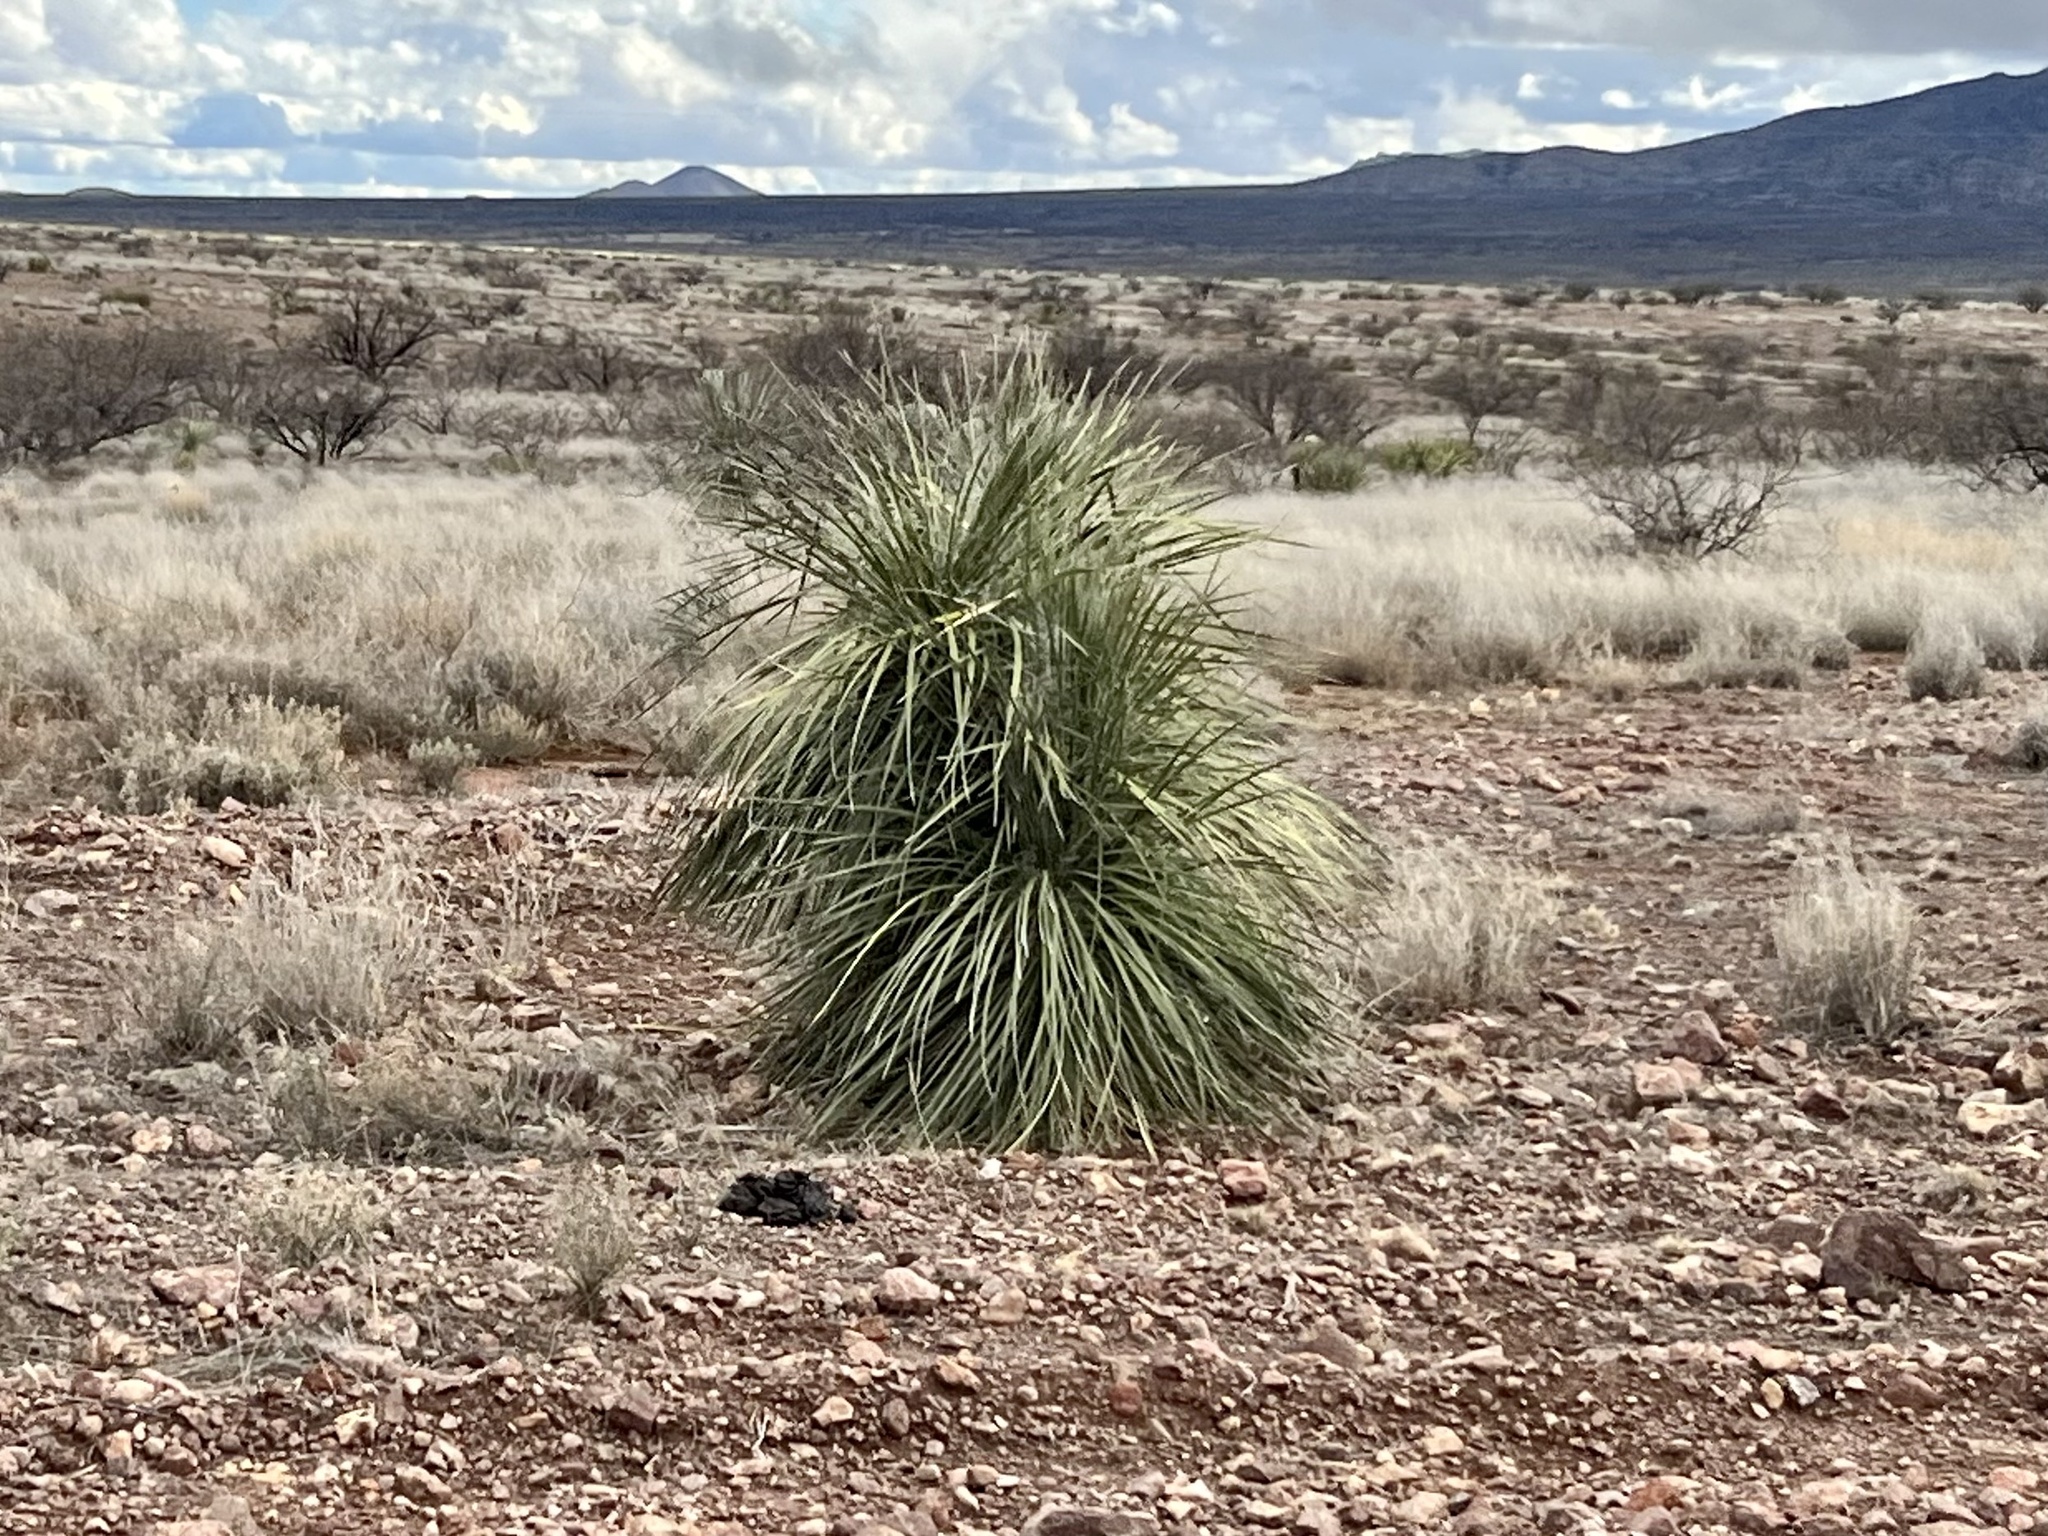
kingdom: Plantae
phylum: Tracheophyta
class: Liliopsida
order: Asparagales
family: Asparagaceae
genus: Yucca
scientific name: Yucca elata
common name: Palmella
